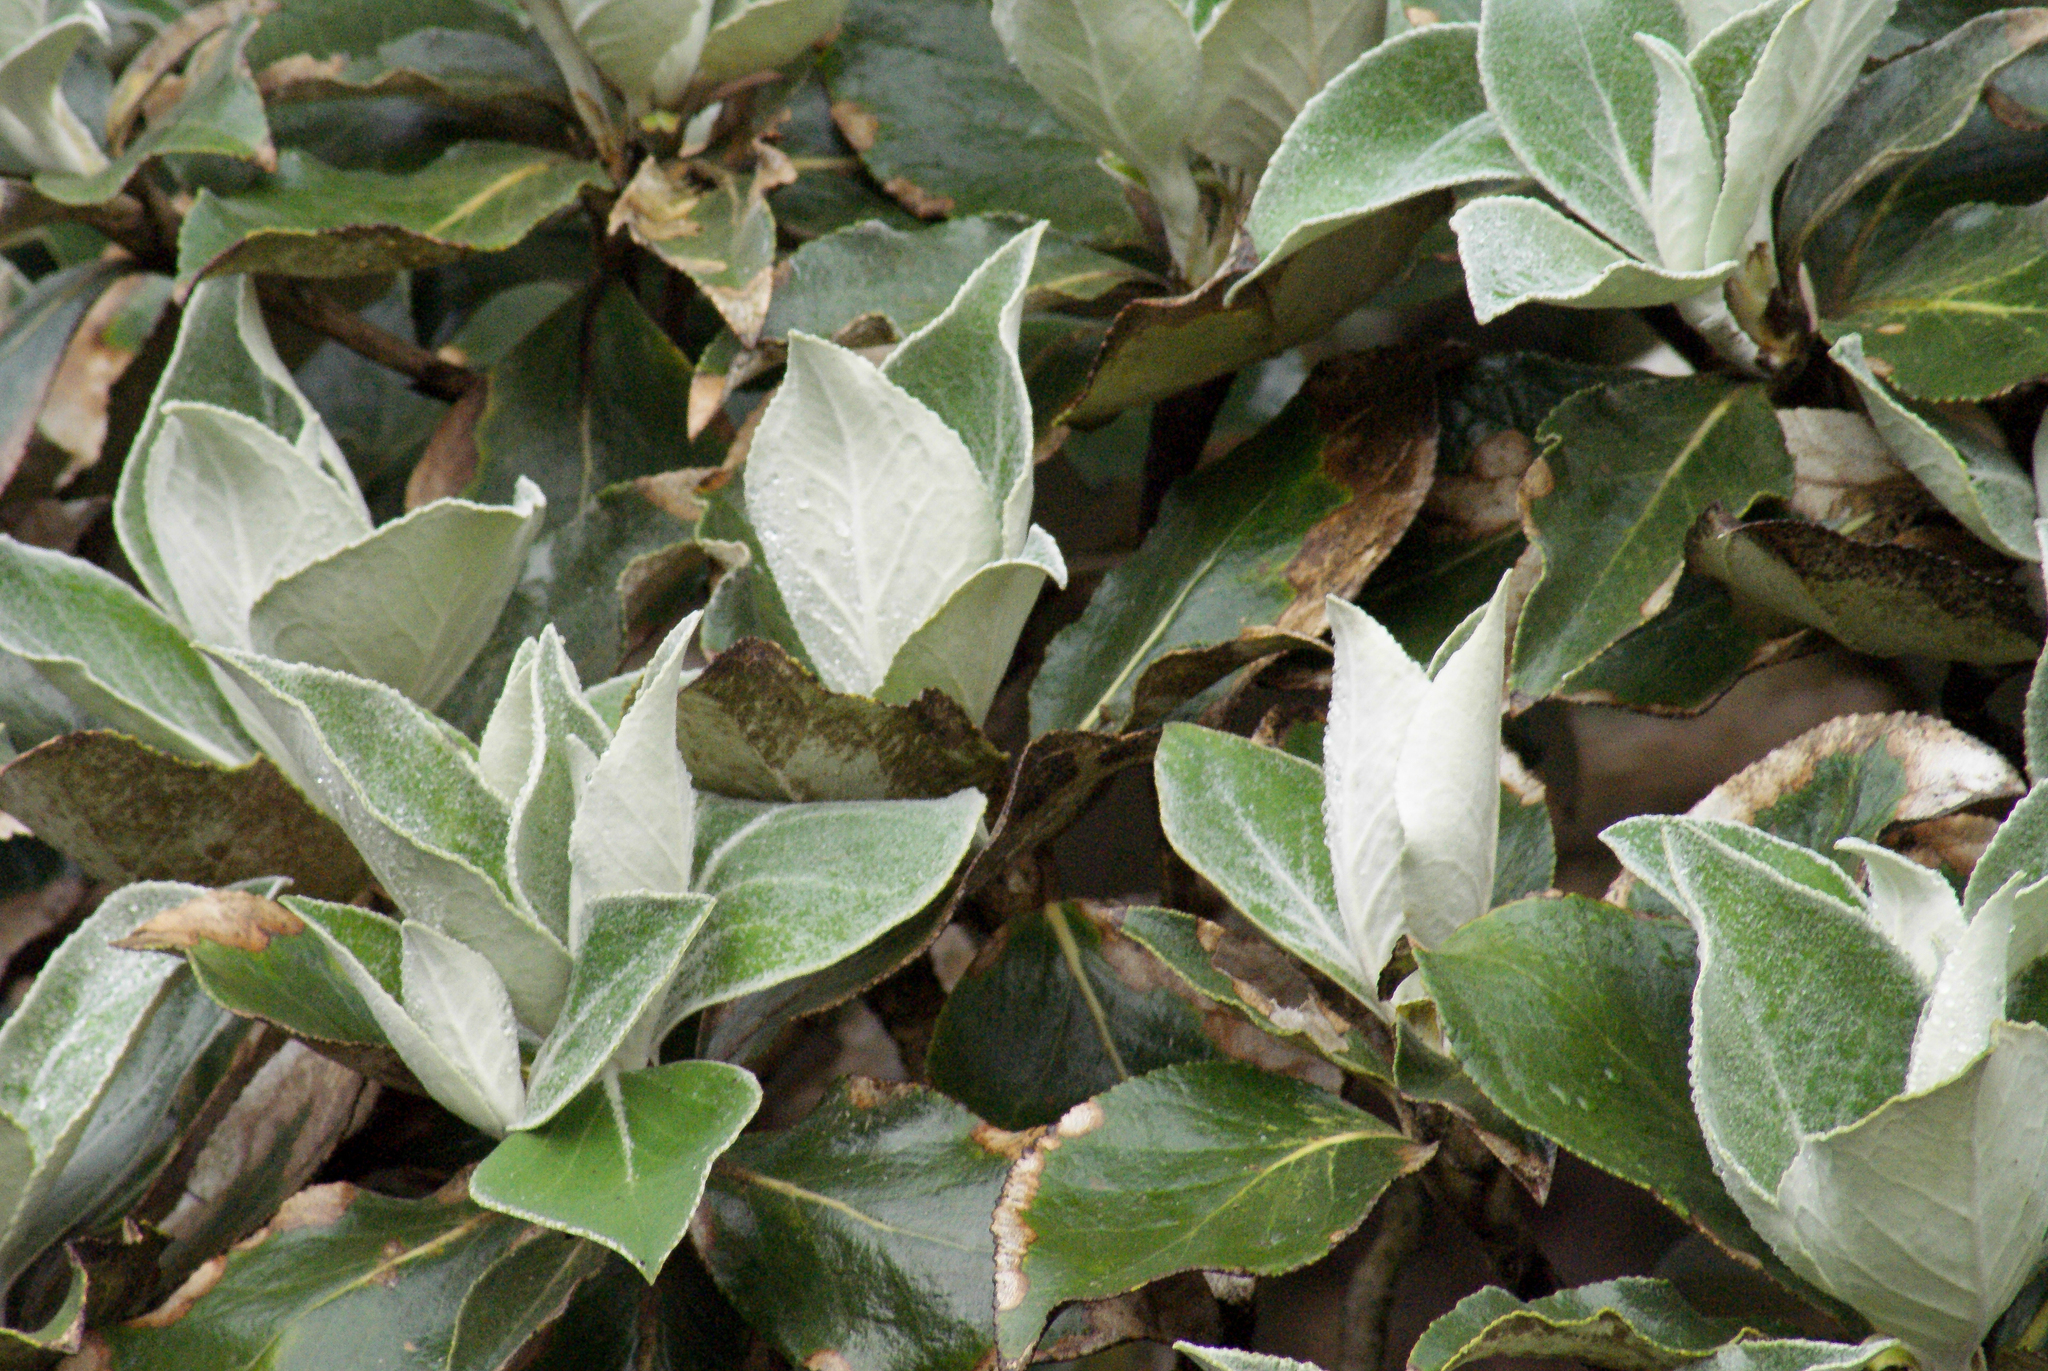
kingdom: Plantae
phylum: Tracheophyta
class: Magnoliopsida
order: Asterales
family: Asteraceae
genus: Macrolearia
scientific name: Macrolearia lyallii
